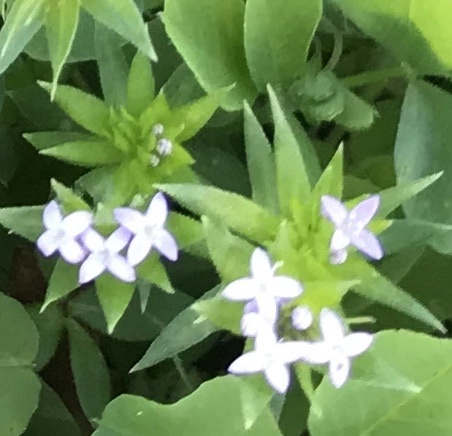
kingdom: Plantae
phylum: Tracheophyta
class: Magnoliopsida
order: Gentianales
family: Rubiaceae
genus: Sherardia
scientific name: Sherardia arvensis
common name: Field madder
